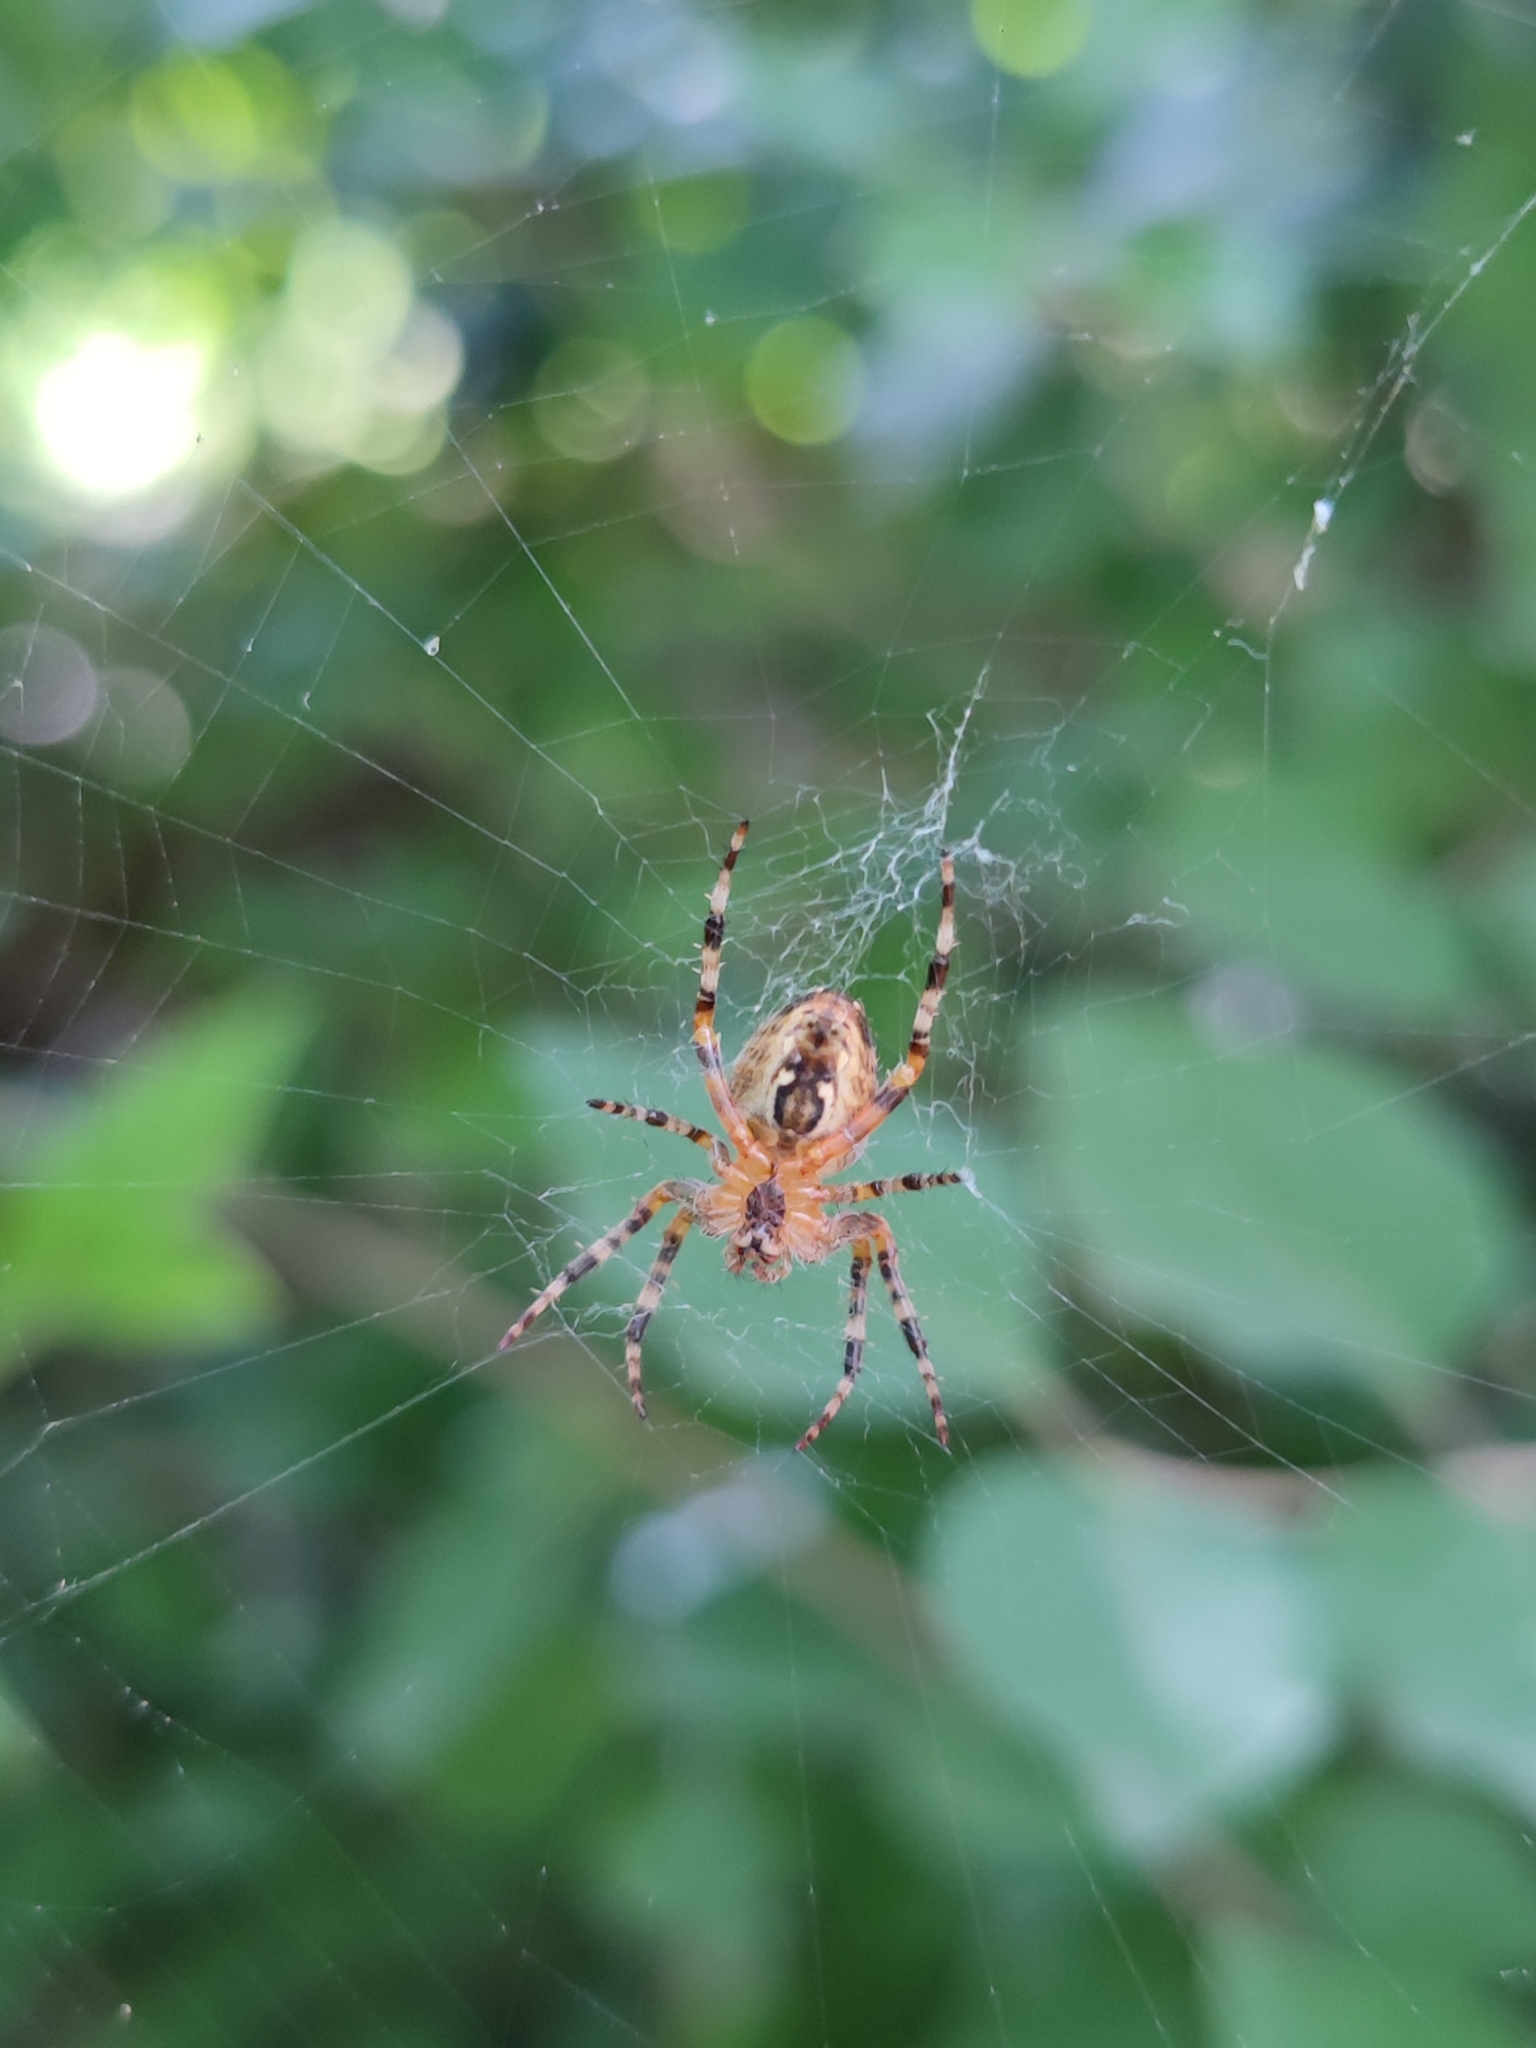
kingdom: Animalia
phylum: Arthropoda
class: Arachnida
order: Araneae
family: Araneidae
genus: Araneus
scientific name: Araneus diadematus
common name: Cross orbweaver
